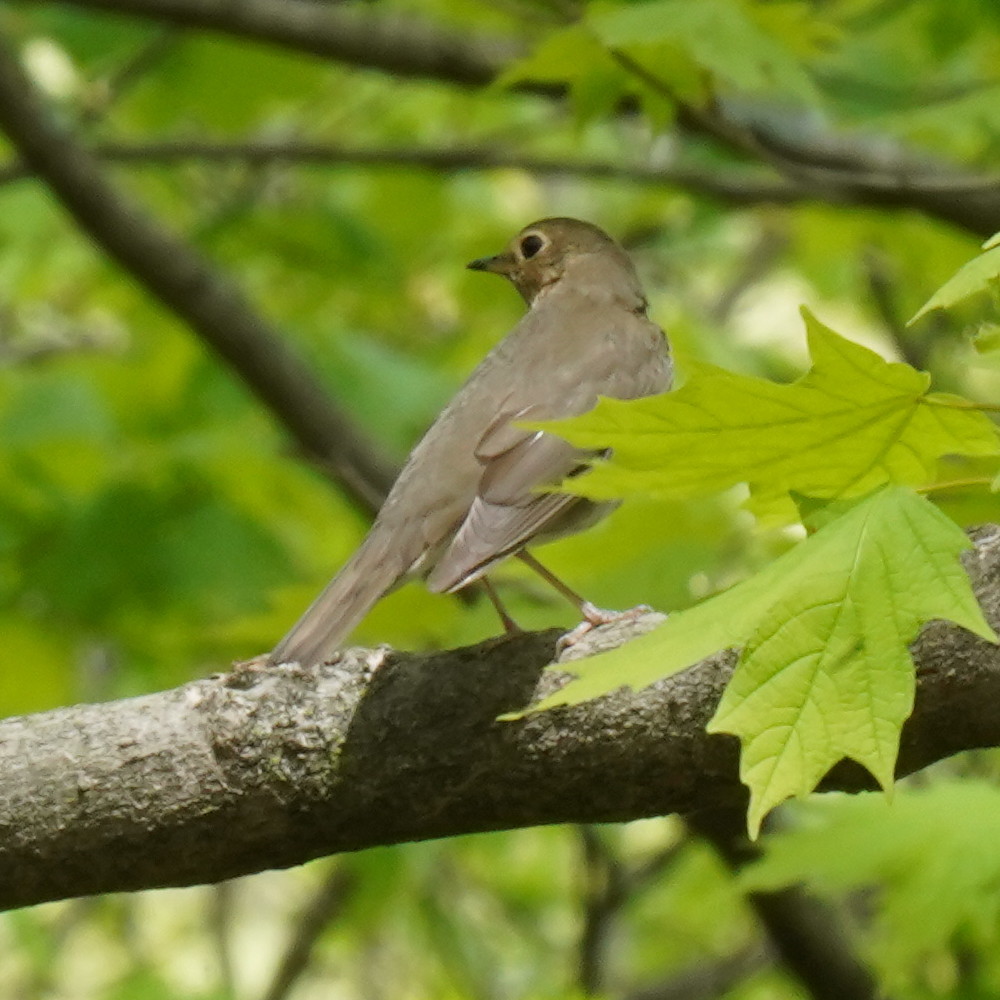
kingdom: Animalia
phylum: Chordata
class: Aves
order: Passeriformes
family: Turdidae
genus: Catharus
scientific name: Catharus ustulatus
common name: Swainson's thrush
